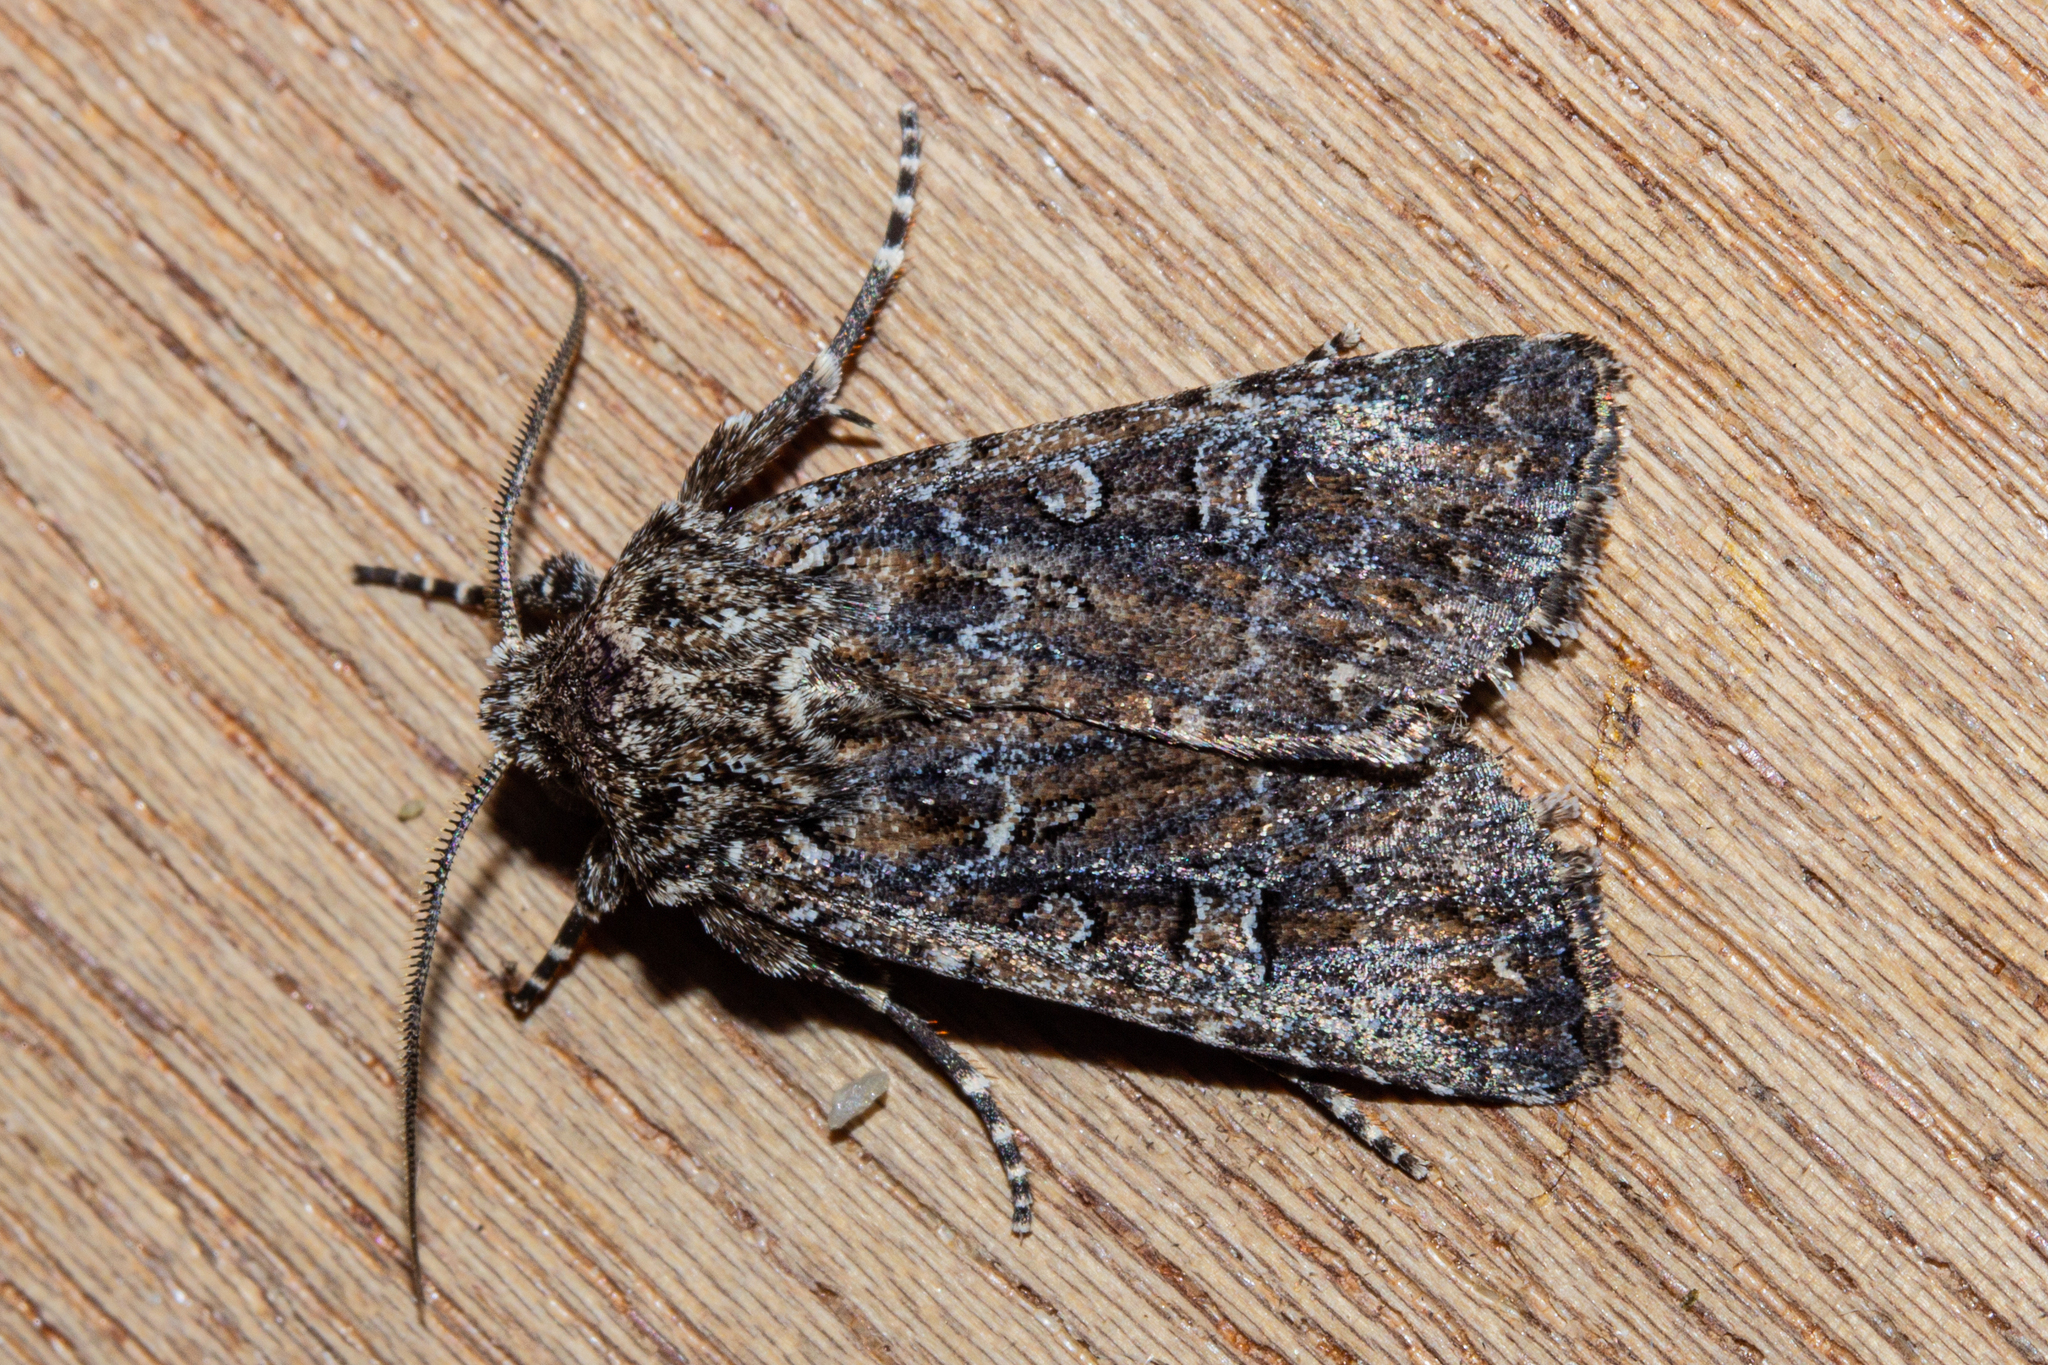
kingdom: Animalia
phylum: Arthropoda
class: Insecta
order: Lepidoptera
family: Noctuidae
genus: Ichneutica
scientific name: Ichneutica lithias
